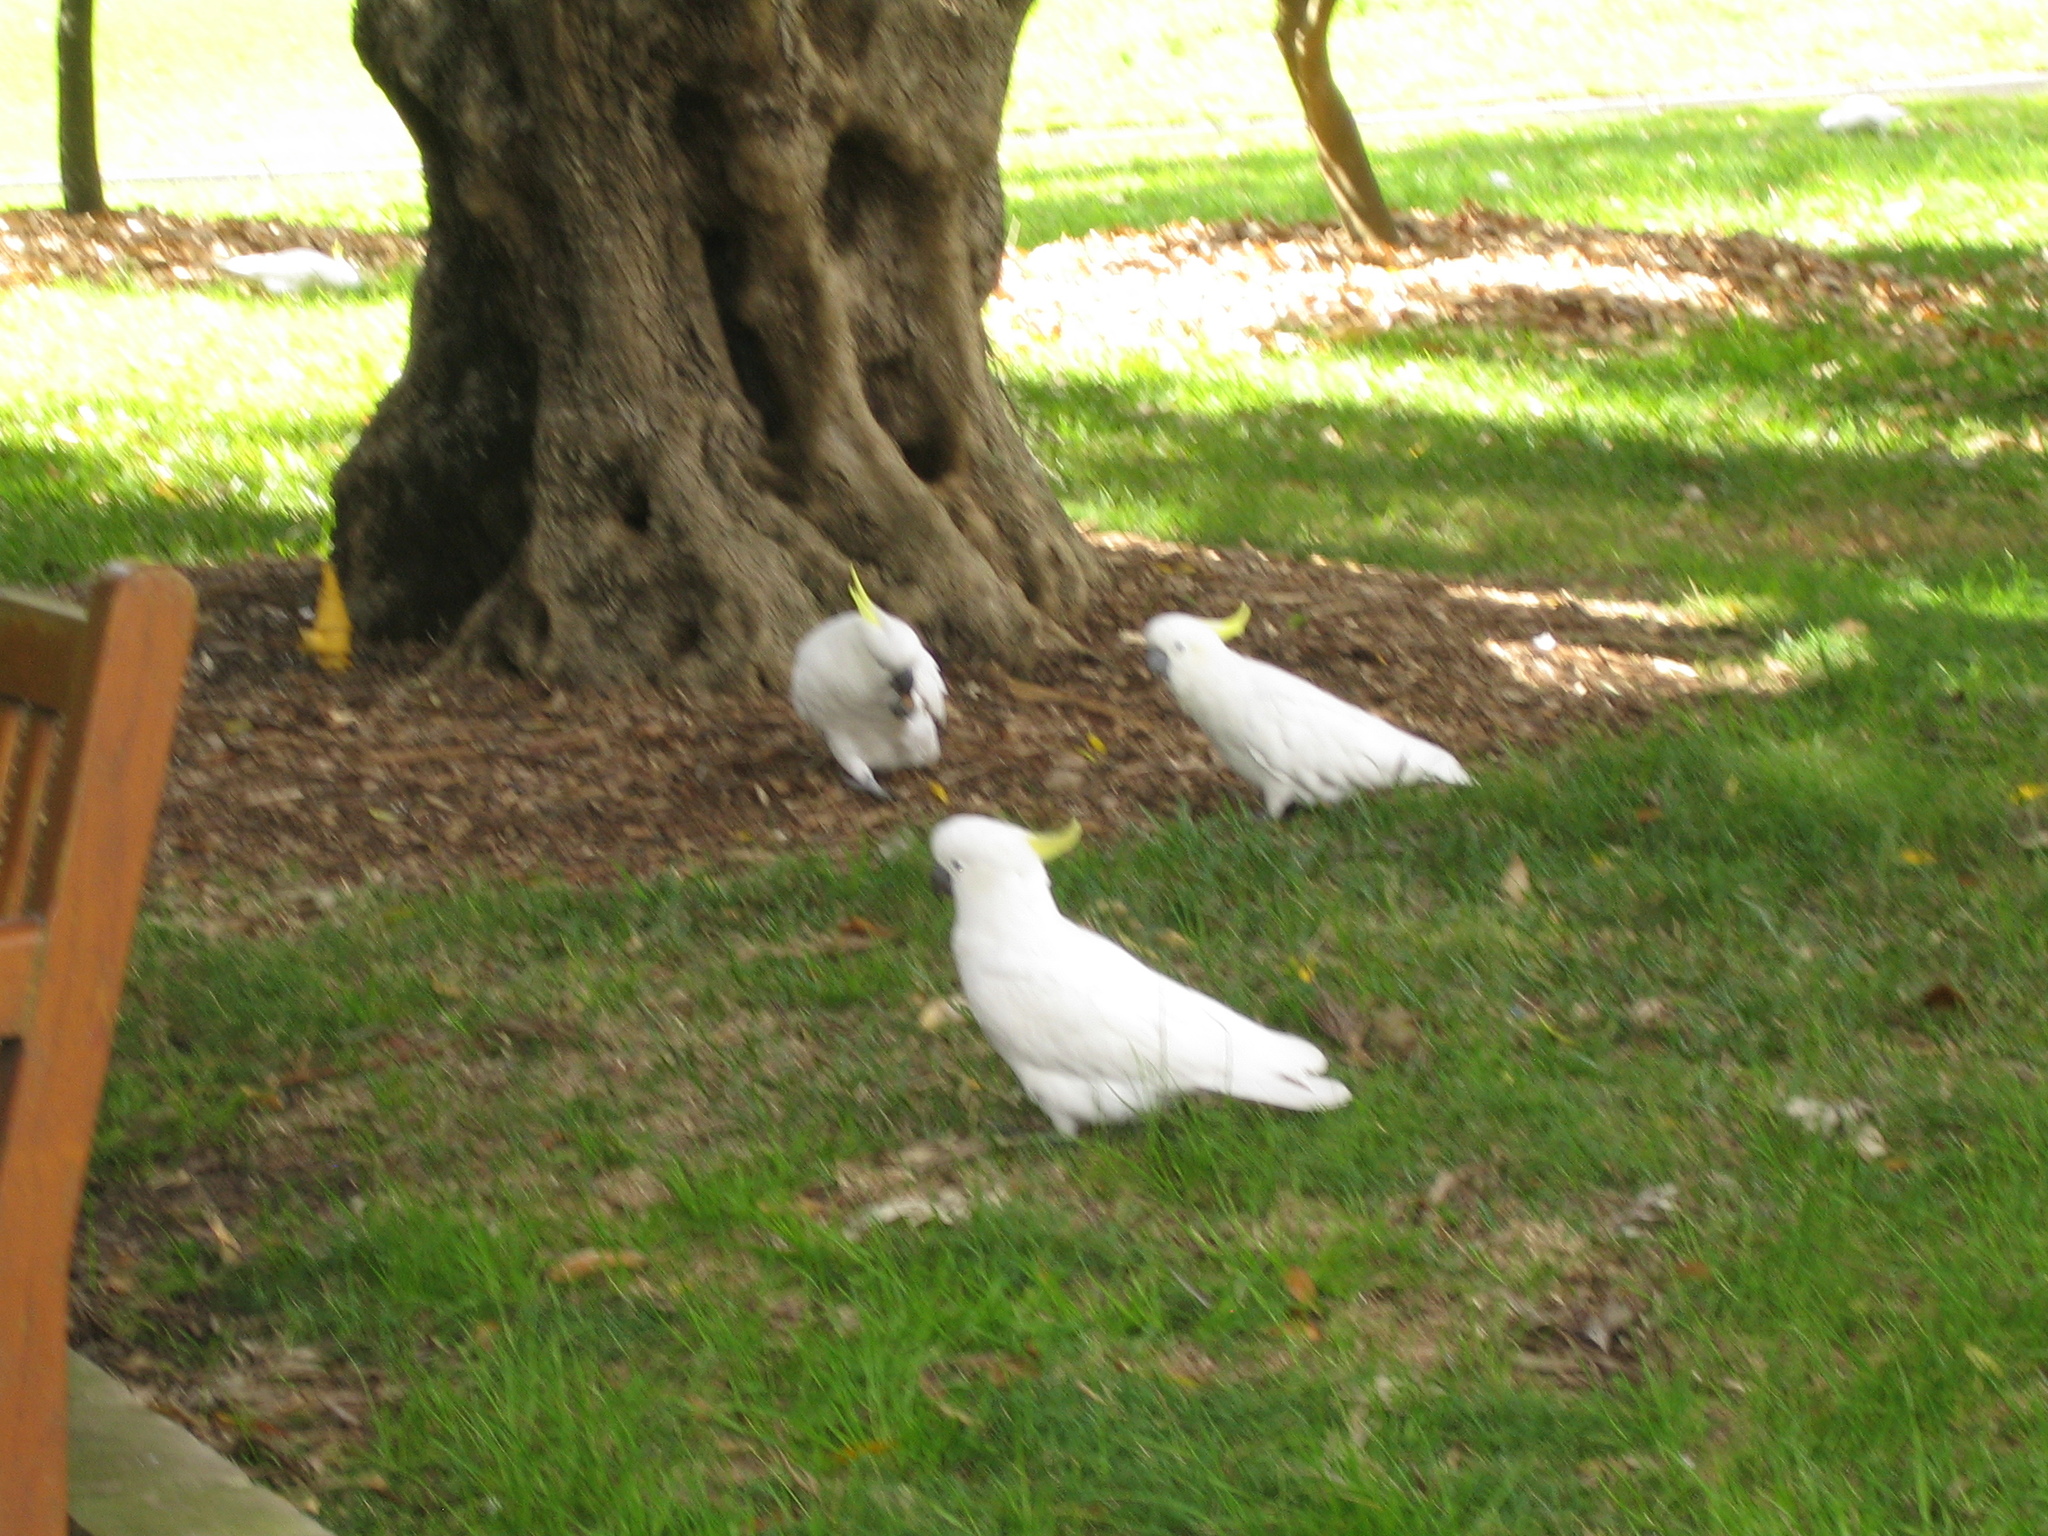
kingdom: Animalia
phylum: Chordata
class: Aves
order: Psittaciformes
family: Psittacidae
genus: Cacatua
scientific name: Cacatua galerita
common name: Sulphur-crested cockatoo
